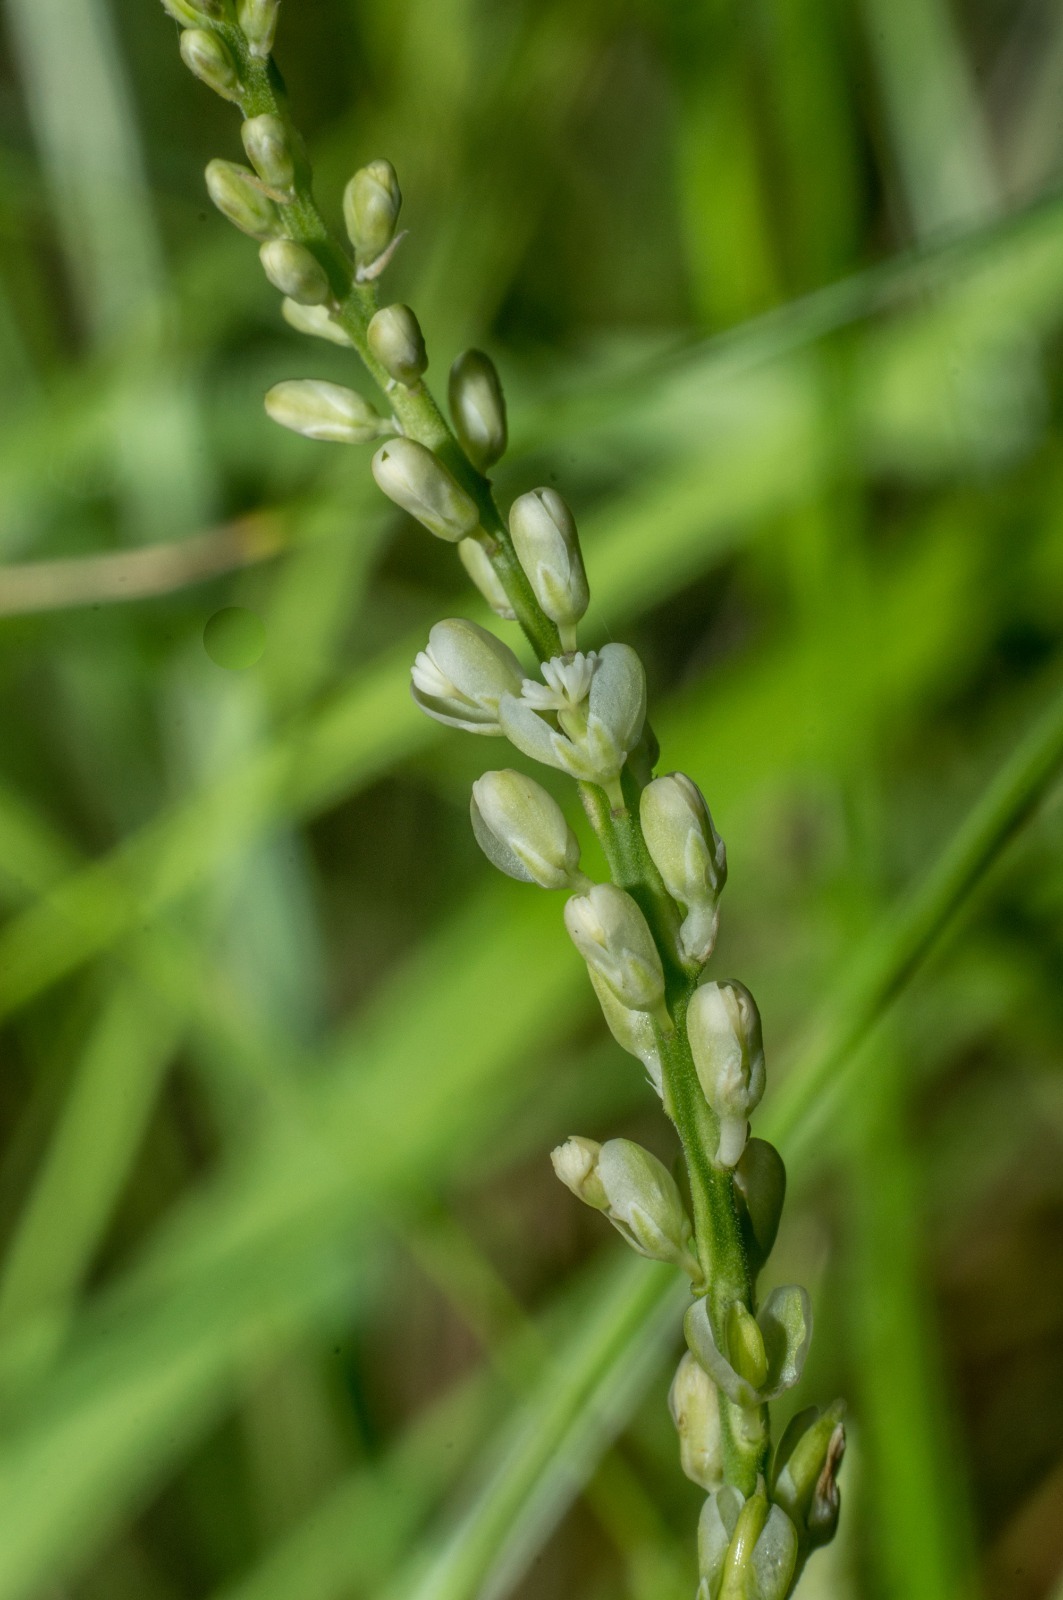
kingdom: Plantae
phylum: Tracheophyta
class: Magnoliopsida
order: Fabales
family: Polygalaceae
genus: Polygala
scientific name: Polygala duarteana
